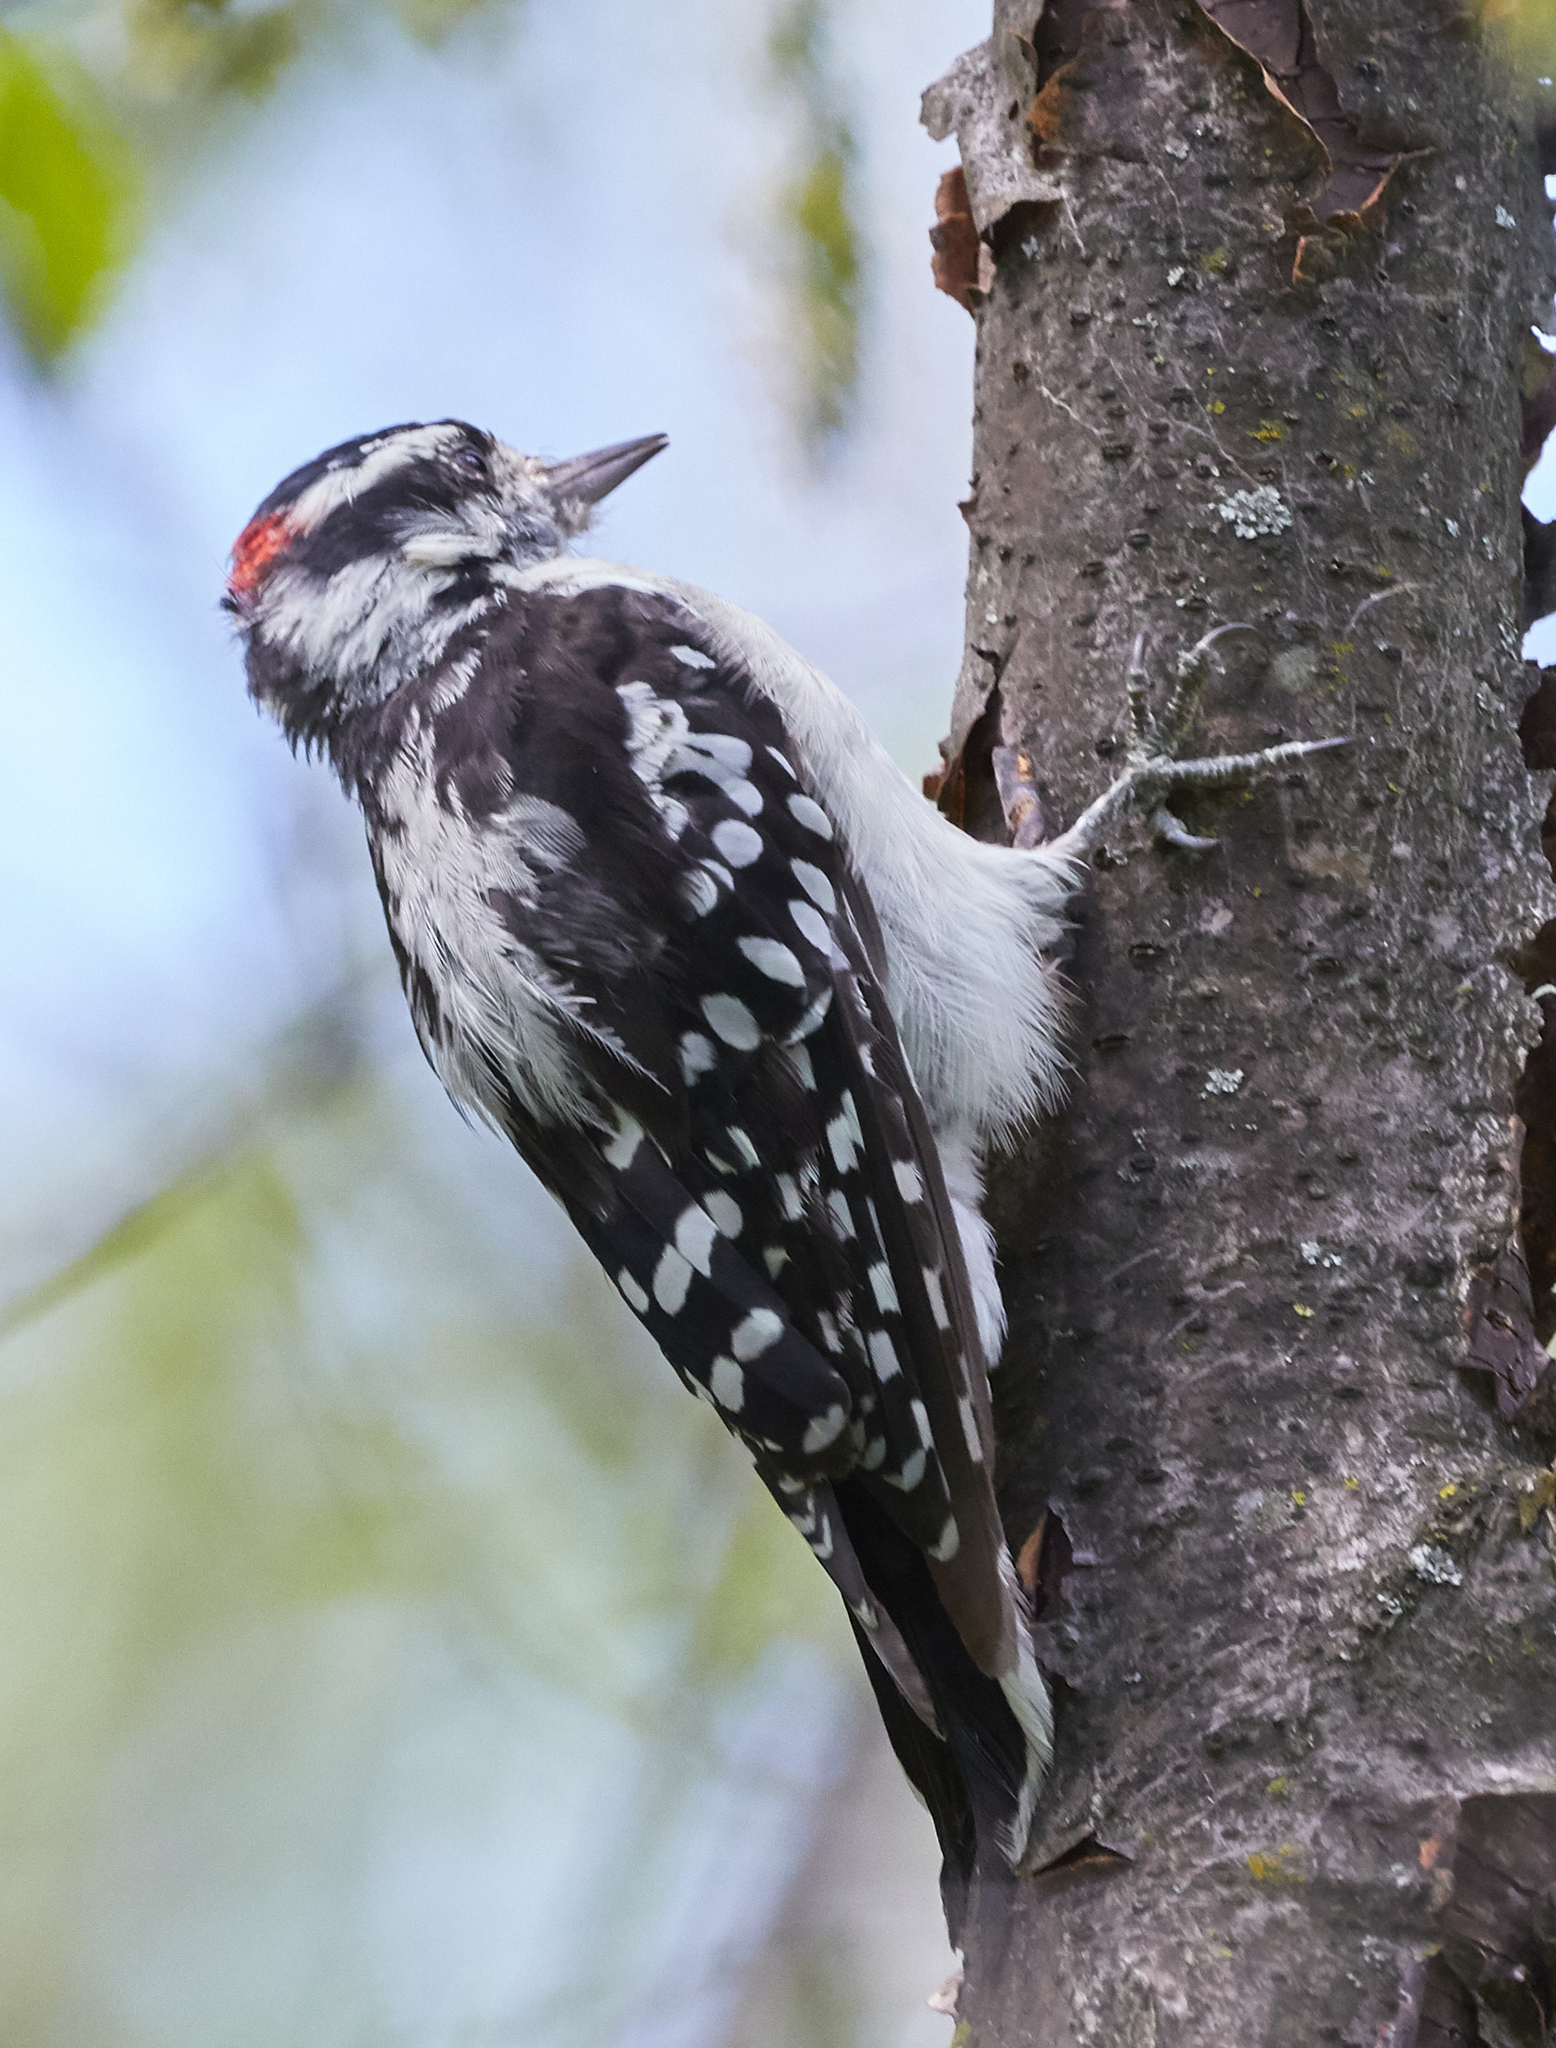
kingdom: Animalia
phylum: Chordata
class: Aves
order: Piciformes
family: Picidae
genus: Dryobates
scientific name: Dryobates pubescens
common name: Downy woodpecker
